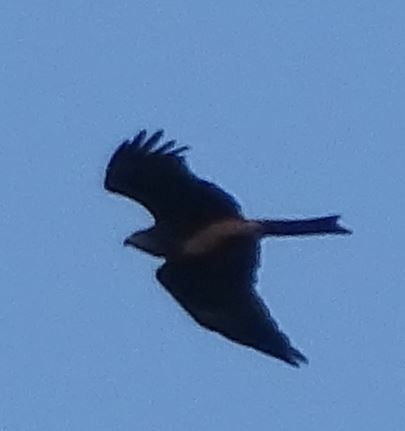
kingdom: Animalia
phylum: Chordata
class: Aves
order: Accipitriformes
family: Accipitridae
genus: Milvus
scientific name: Milvus migrans
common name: Black kite
